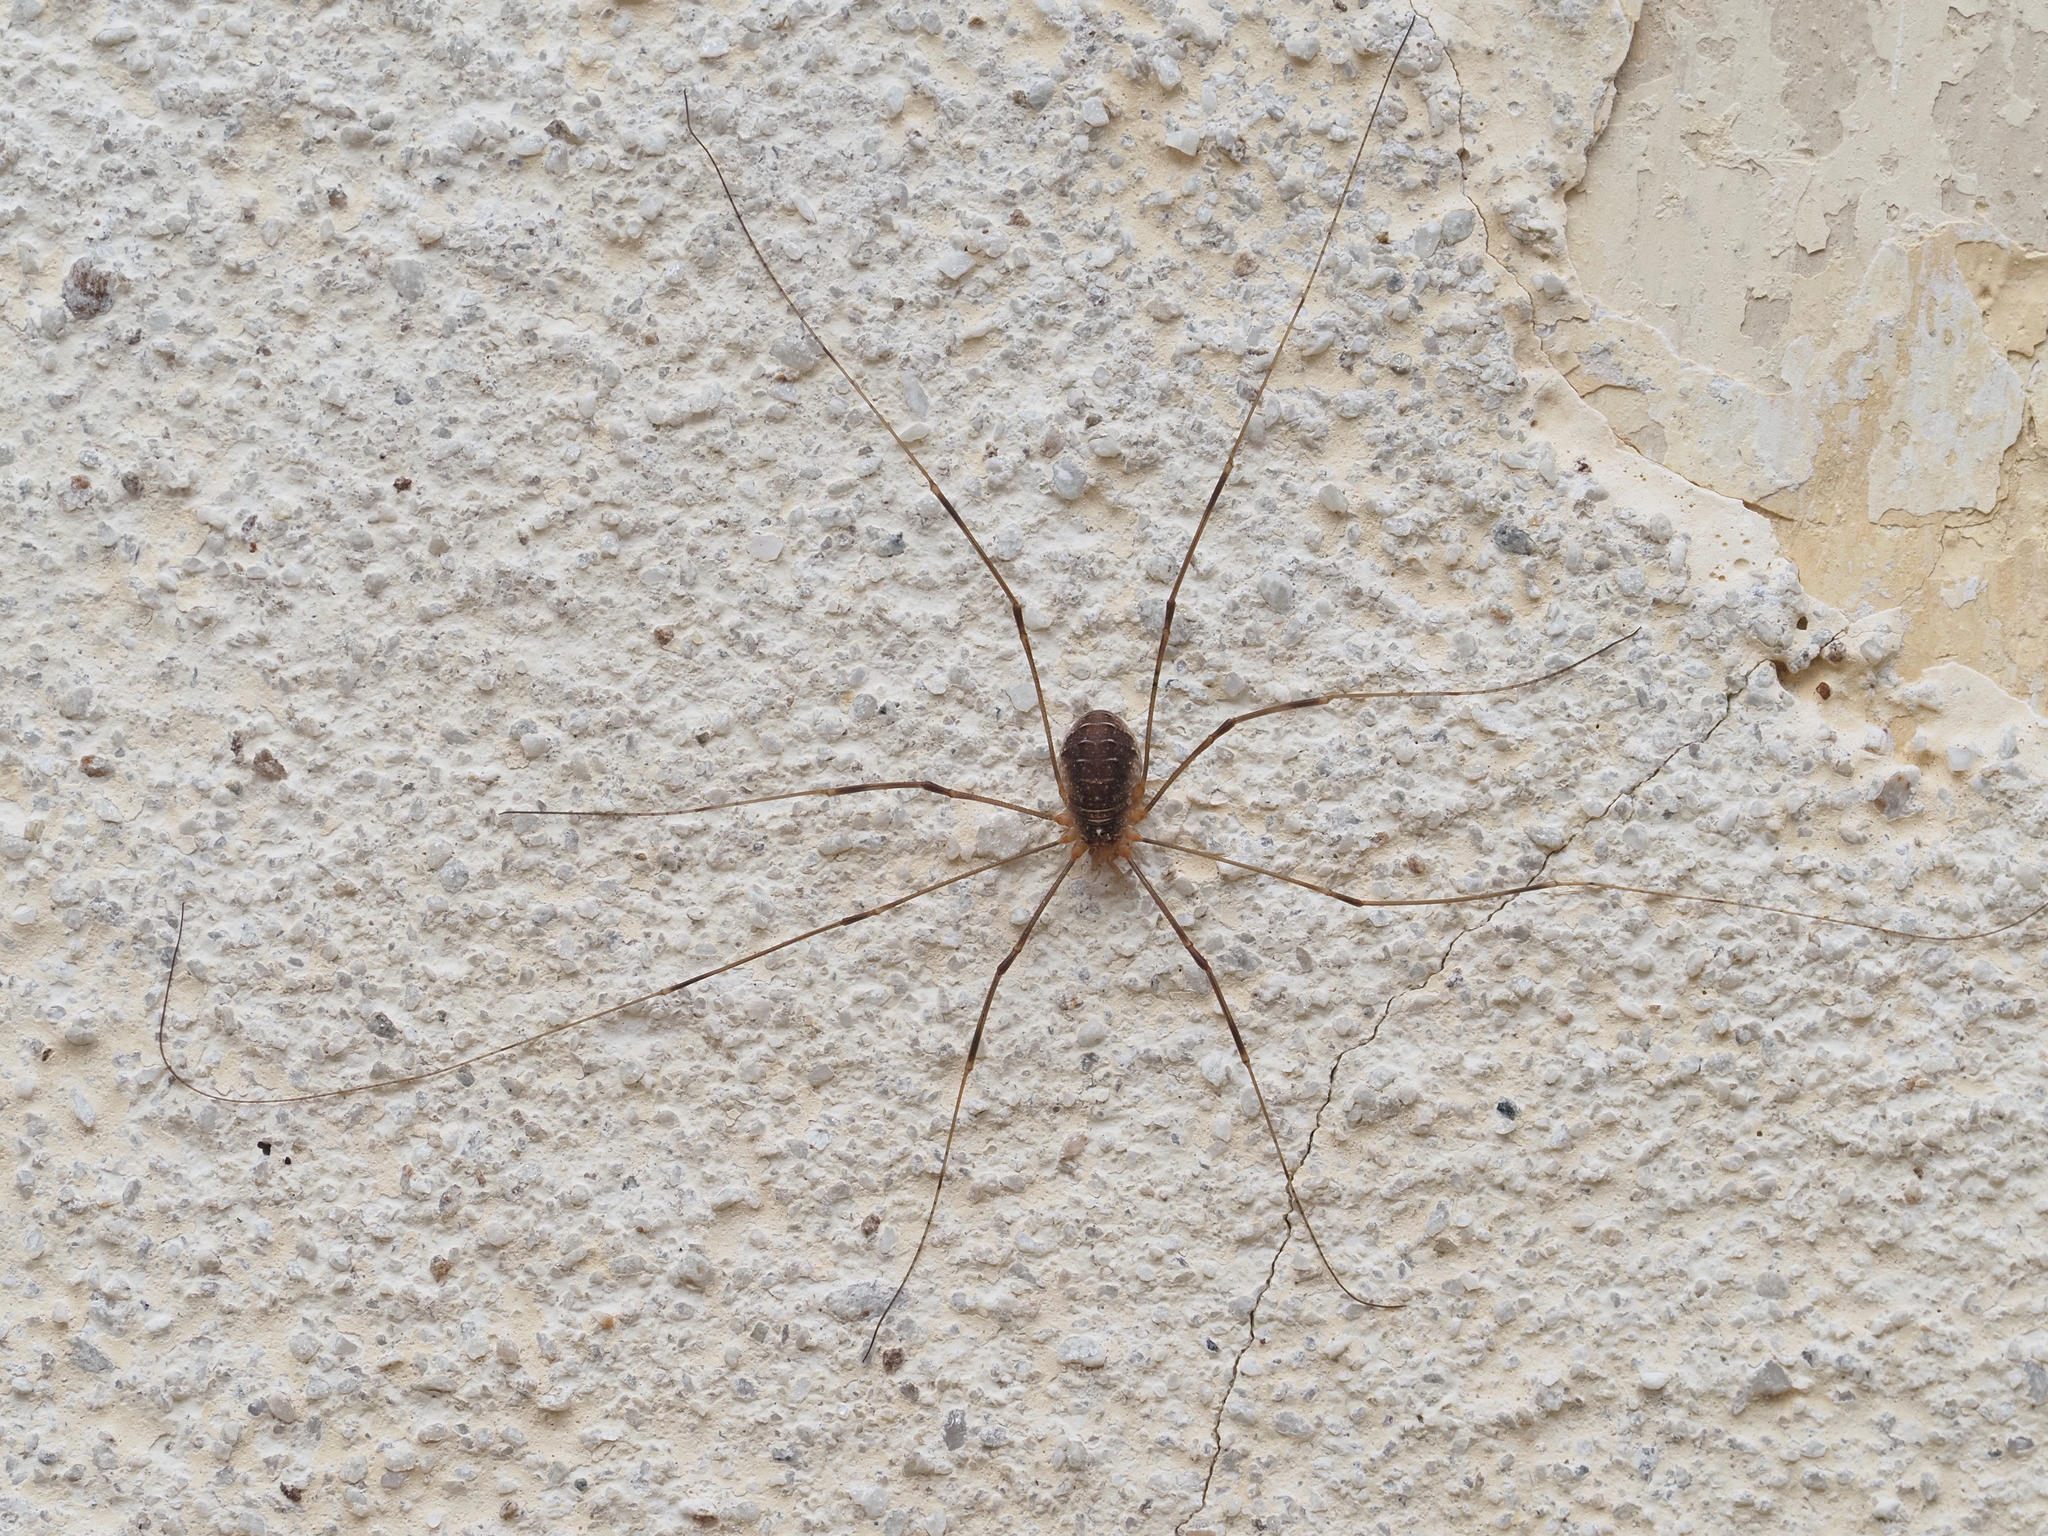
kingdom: Animalia
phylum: Arthropoda
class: Arachnida
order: Opiliones
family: Phalangiidae
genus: Opilio
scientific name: Opilio canestrinii
